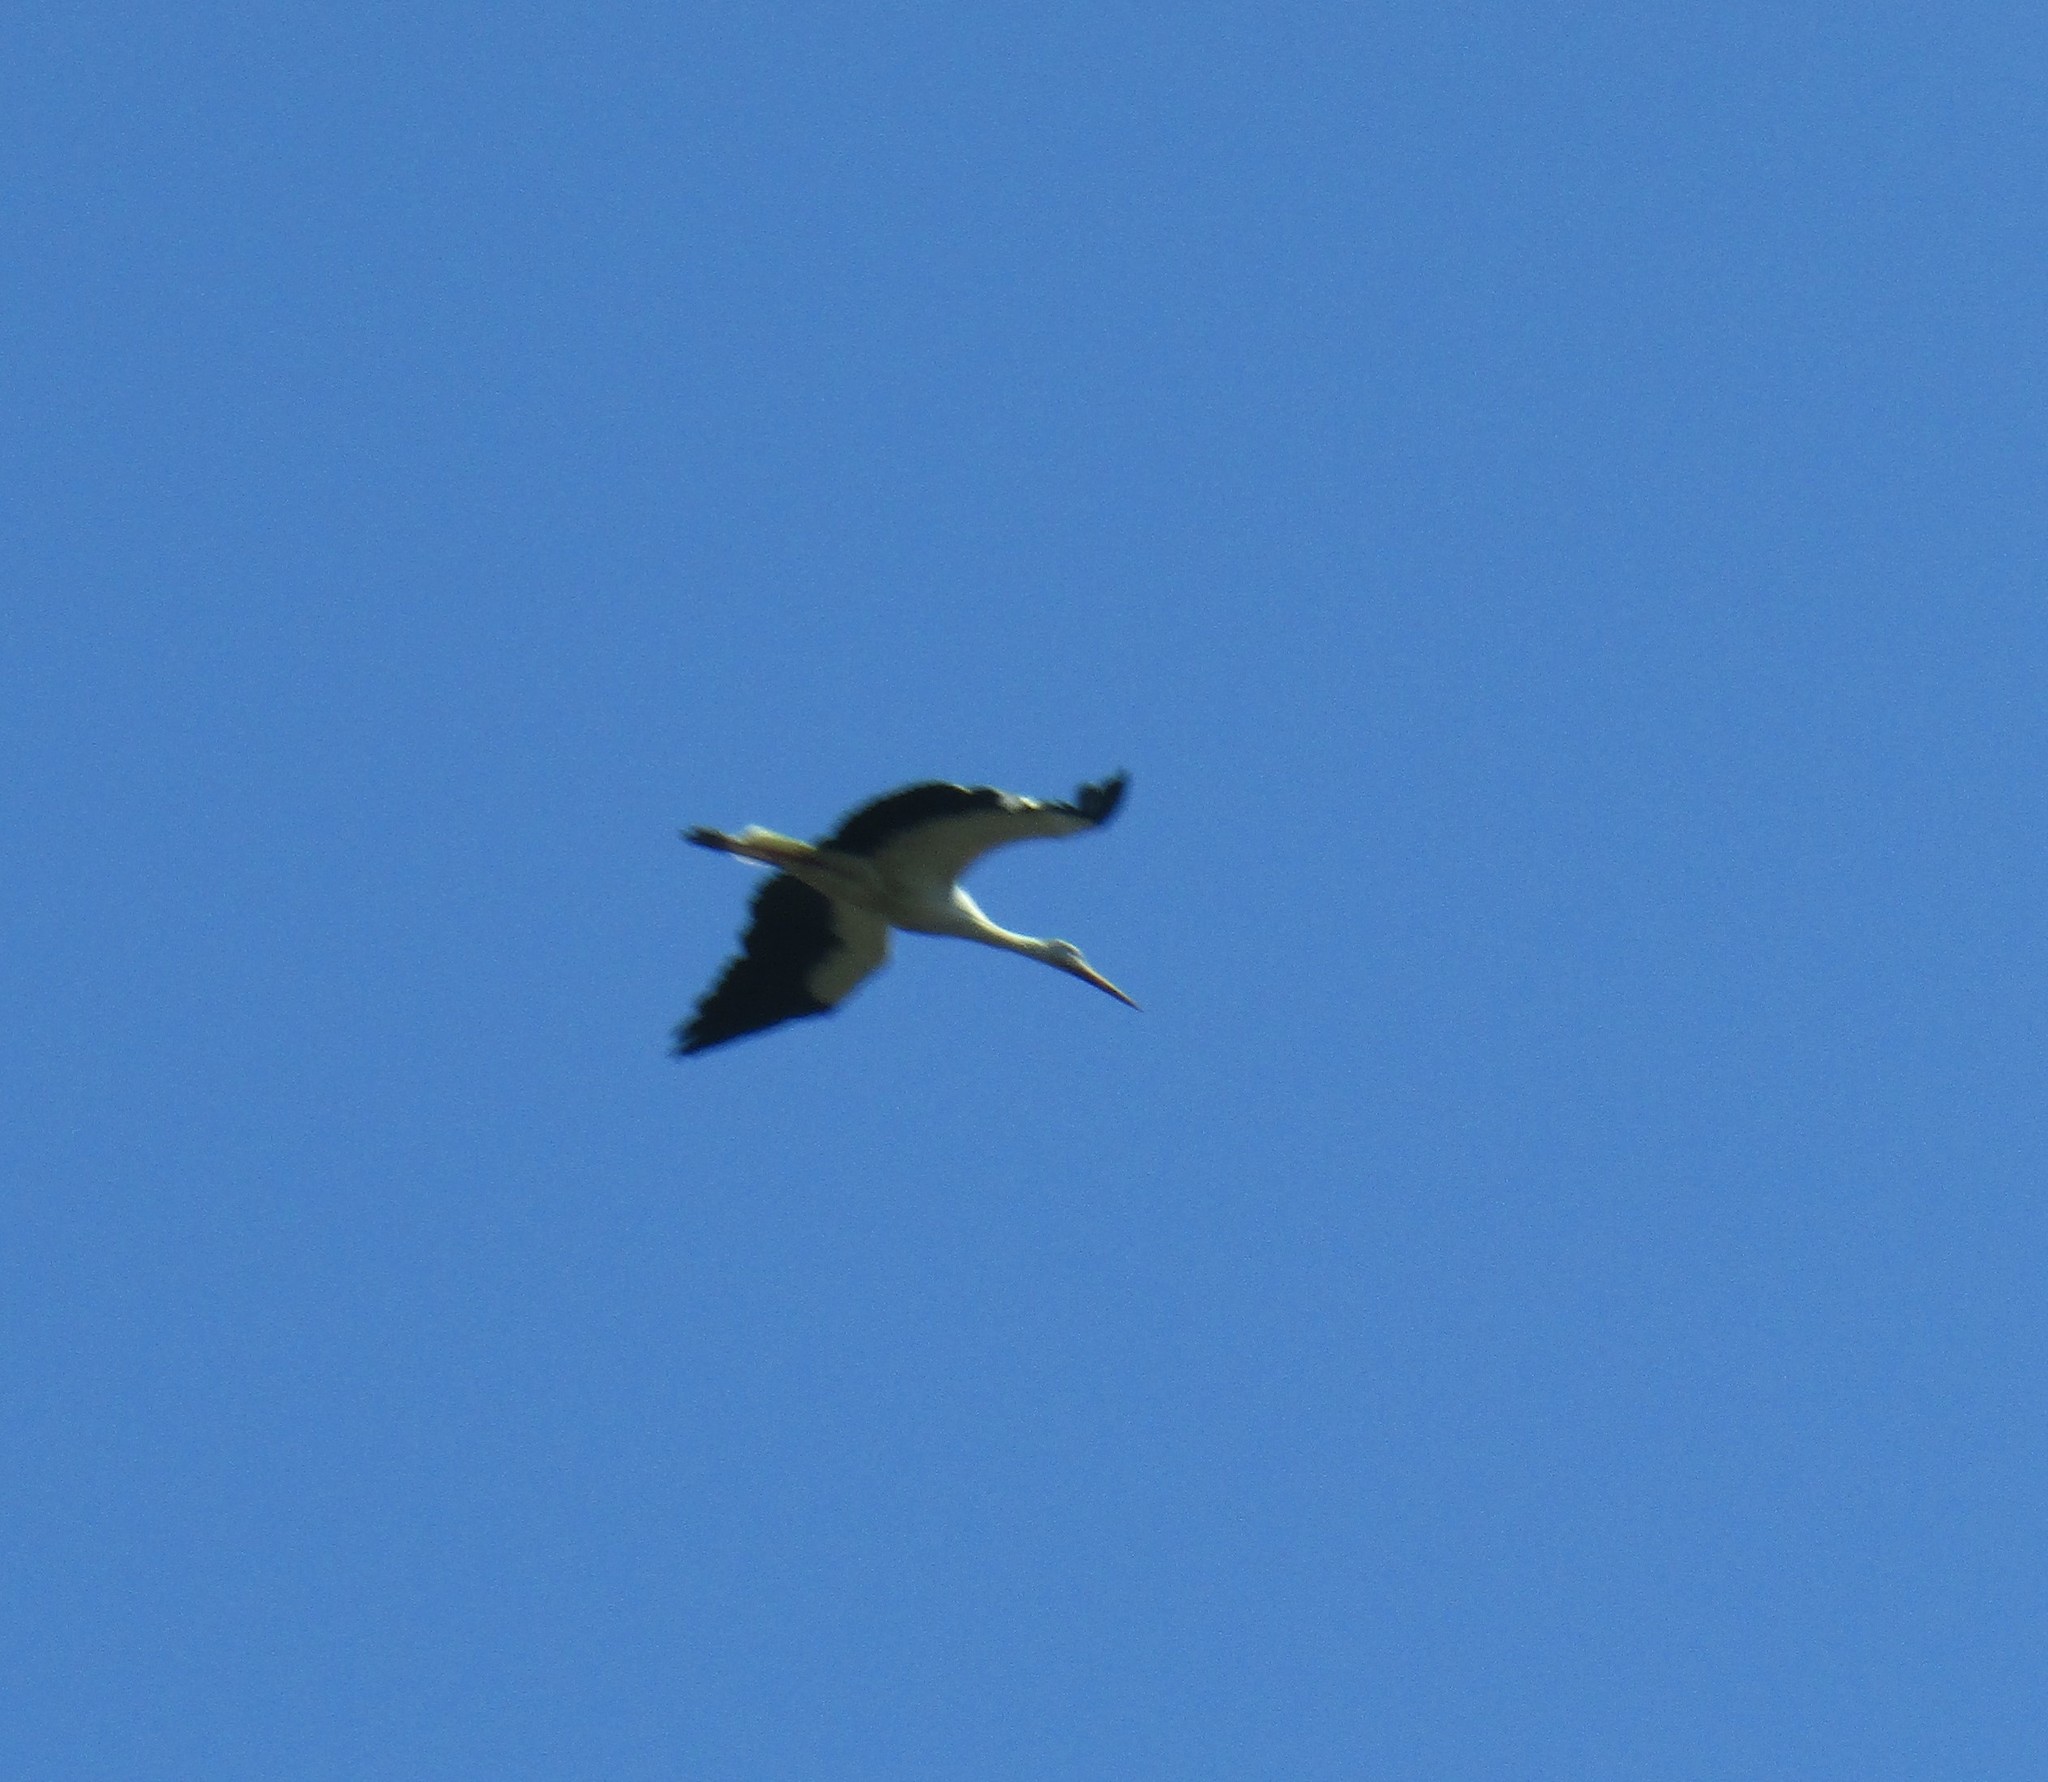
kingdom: Animalia
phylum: Chordata
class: Aves
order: Ciconiiformes
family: Ciconiidae
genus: Ciconia
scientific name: Ciconia ciconia
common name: White stork
